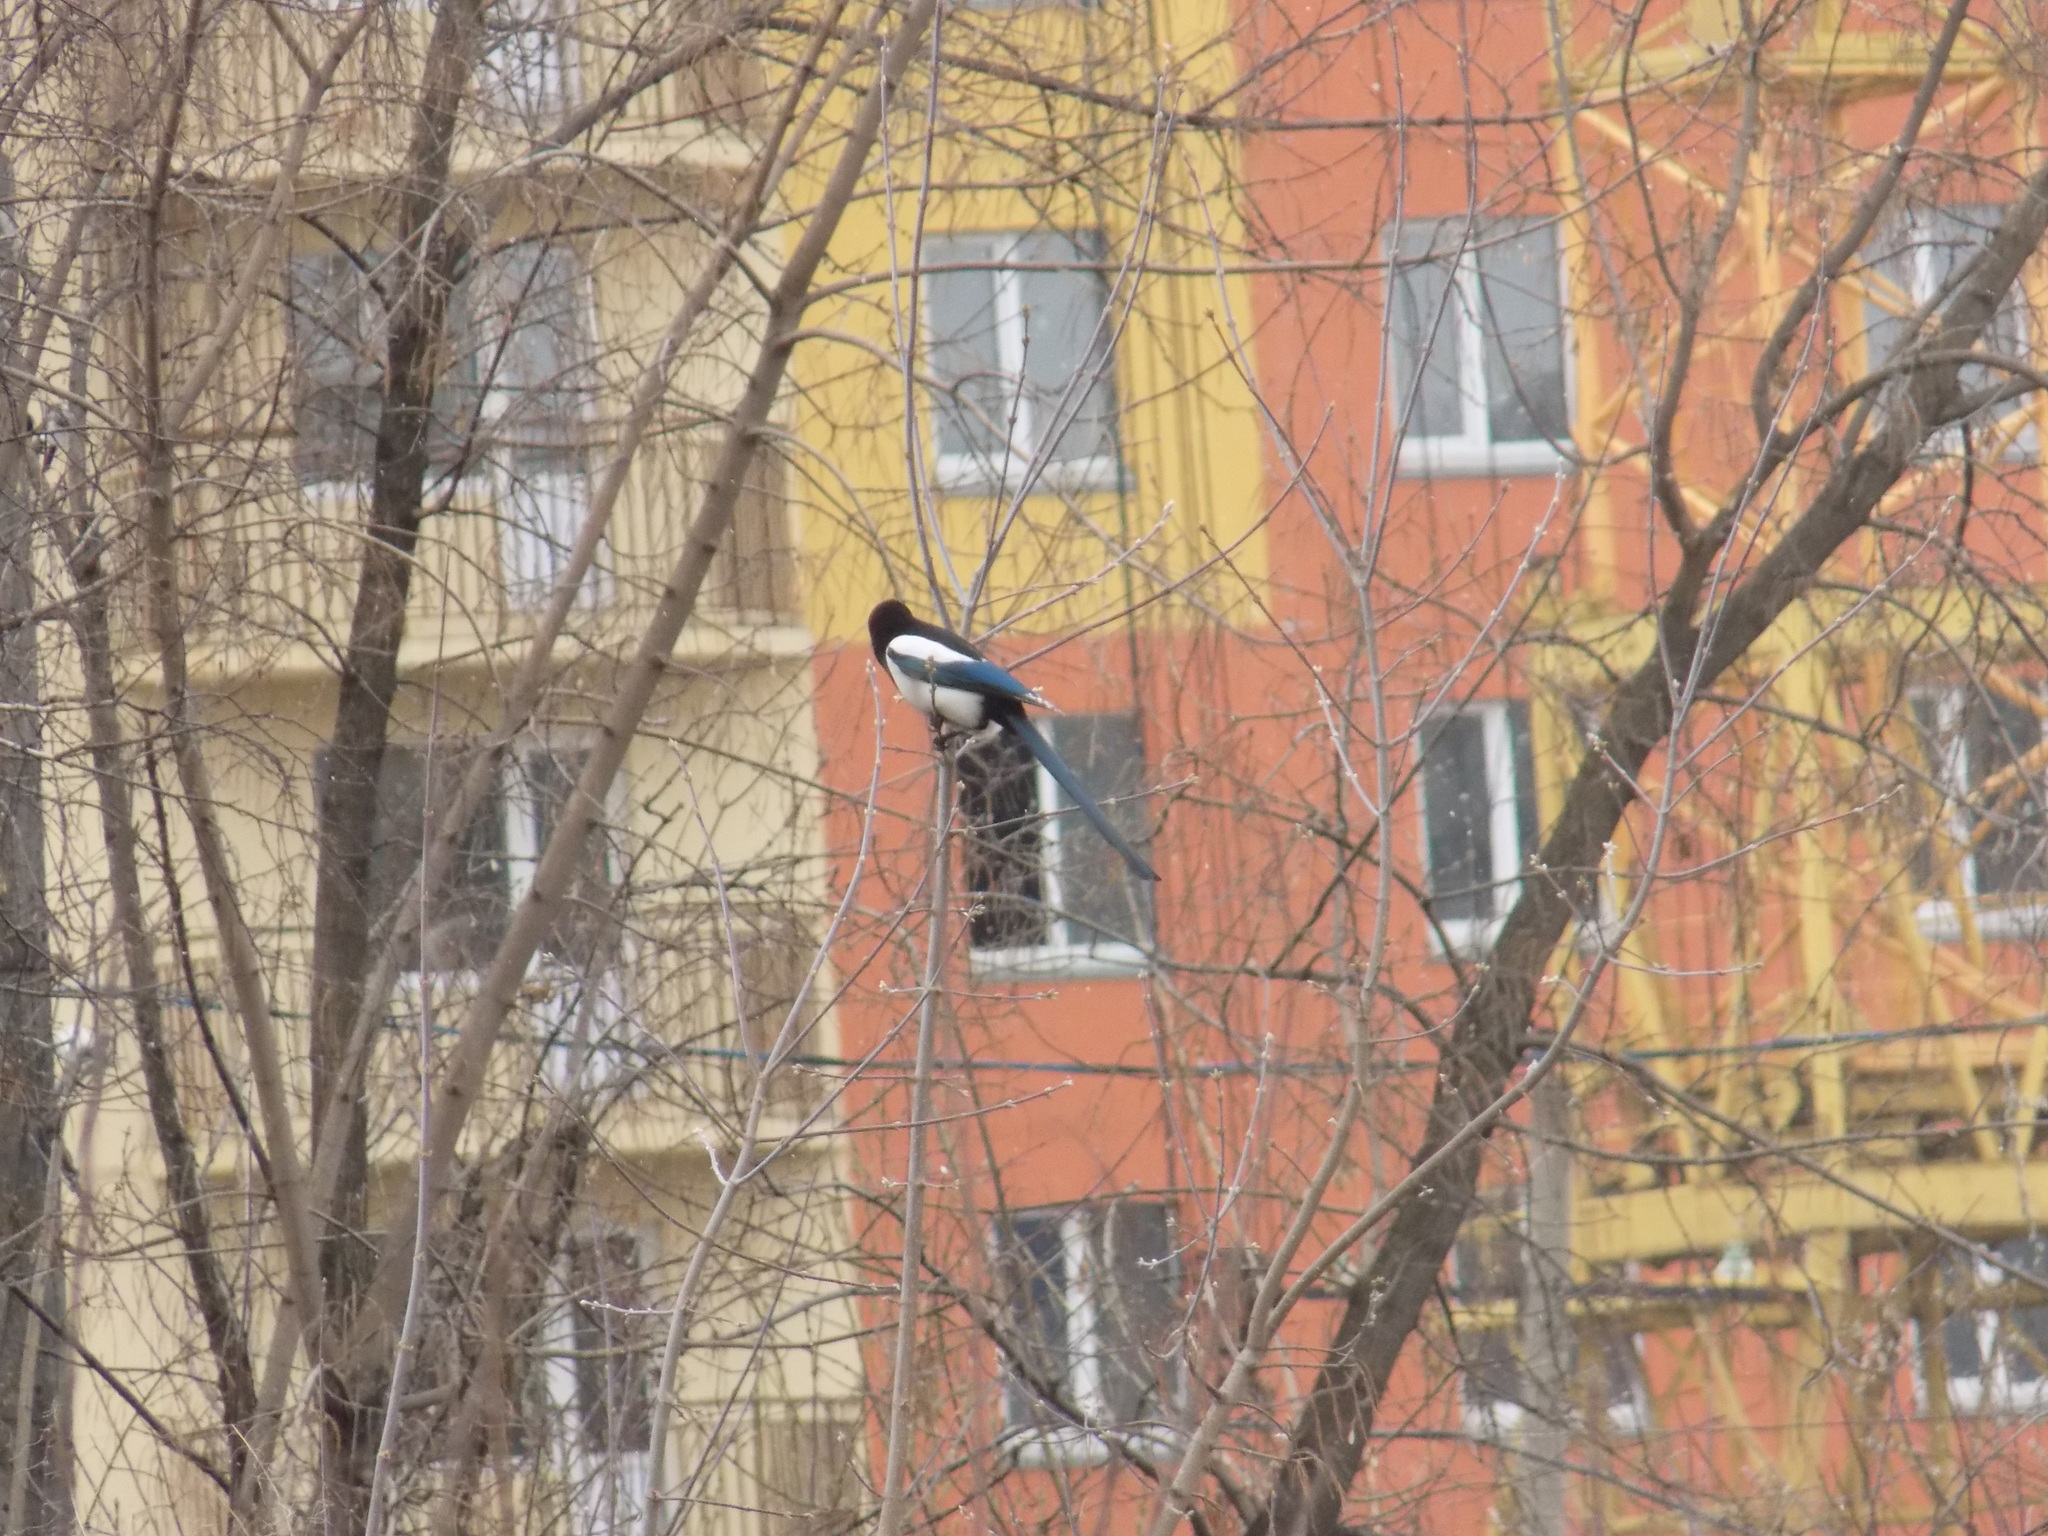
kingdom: Animalia
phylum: Chordata
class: Aves
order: Passeriformes
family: Corvidae
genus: Pica
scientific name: Pica pica
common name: Eurasian magpie
